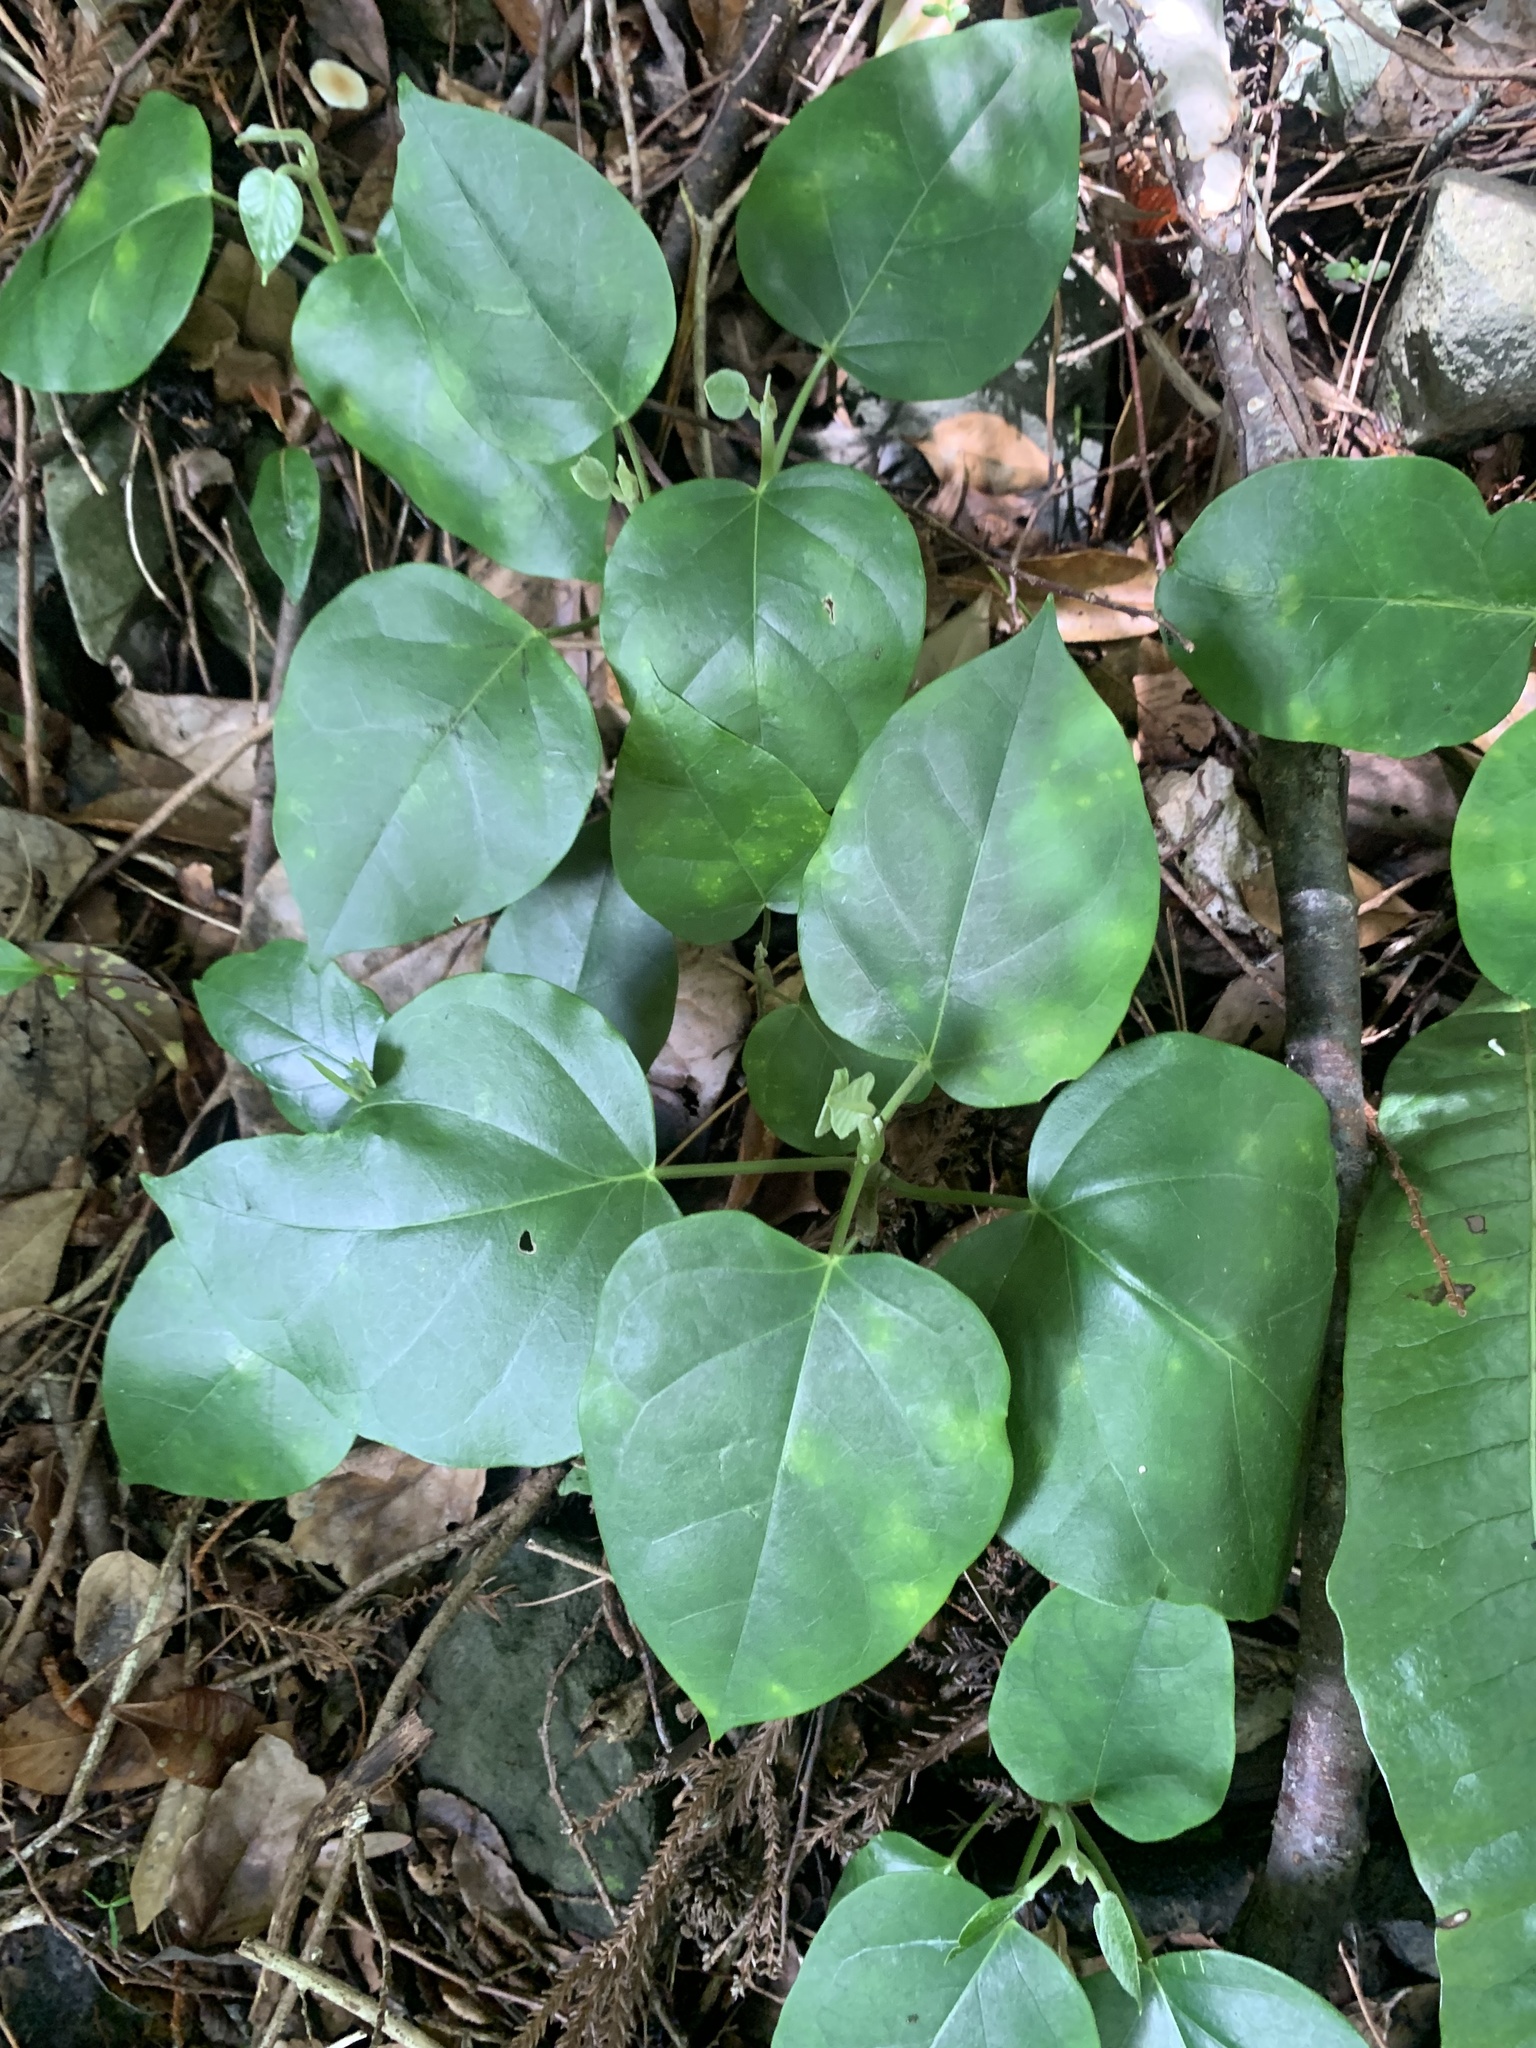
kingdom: Plantae
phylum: Tracheophyta
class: Magnoliopsida
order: Gentianales
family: Apocynaceae
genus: Sinomarsdenia
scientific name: Sinomarsdenia tomentosa
